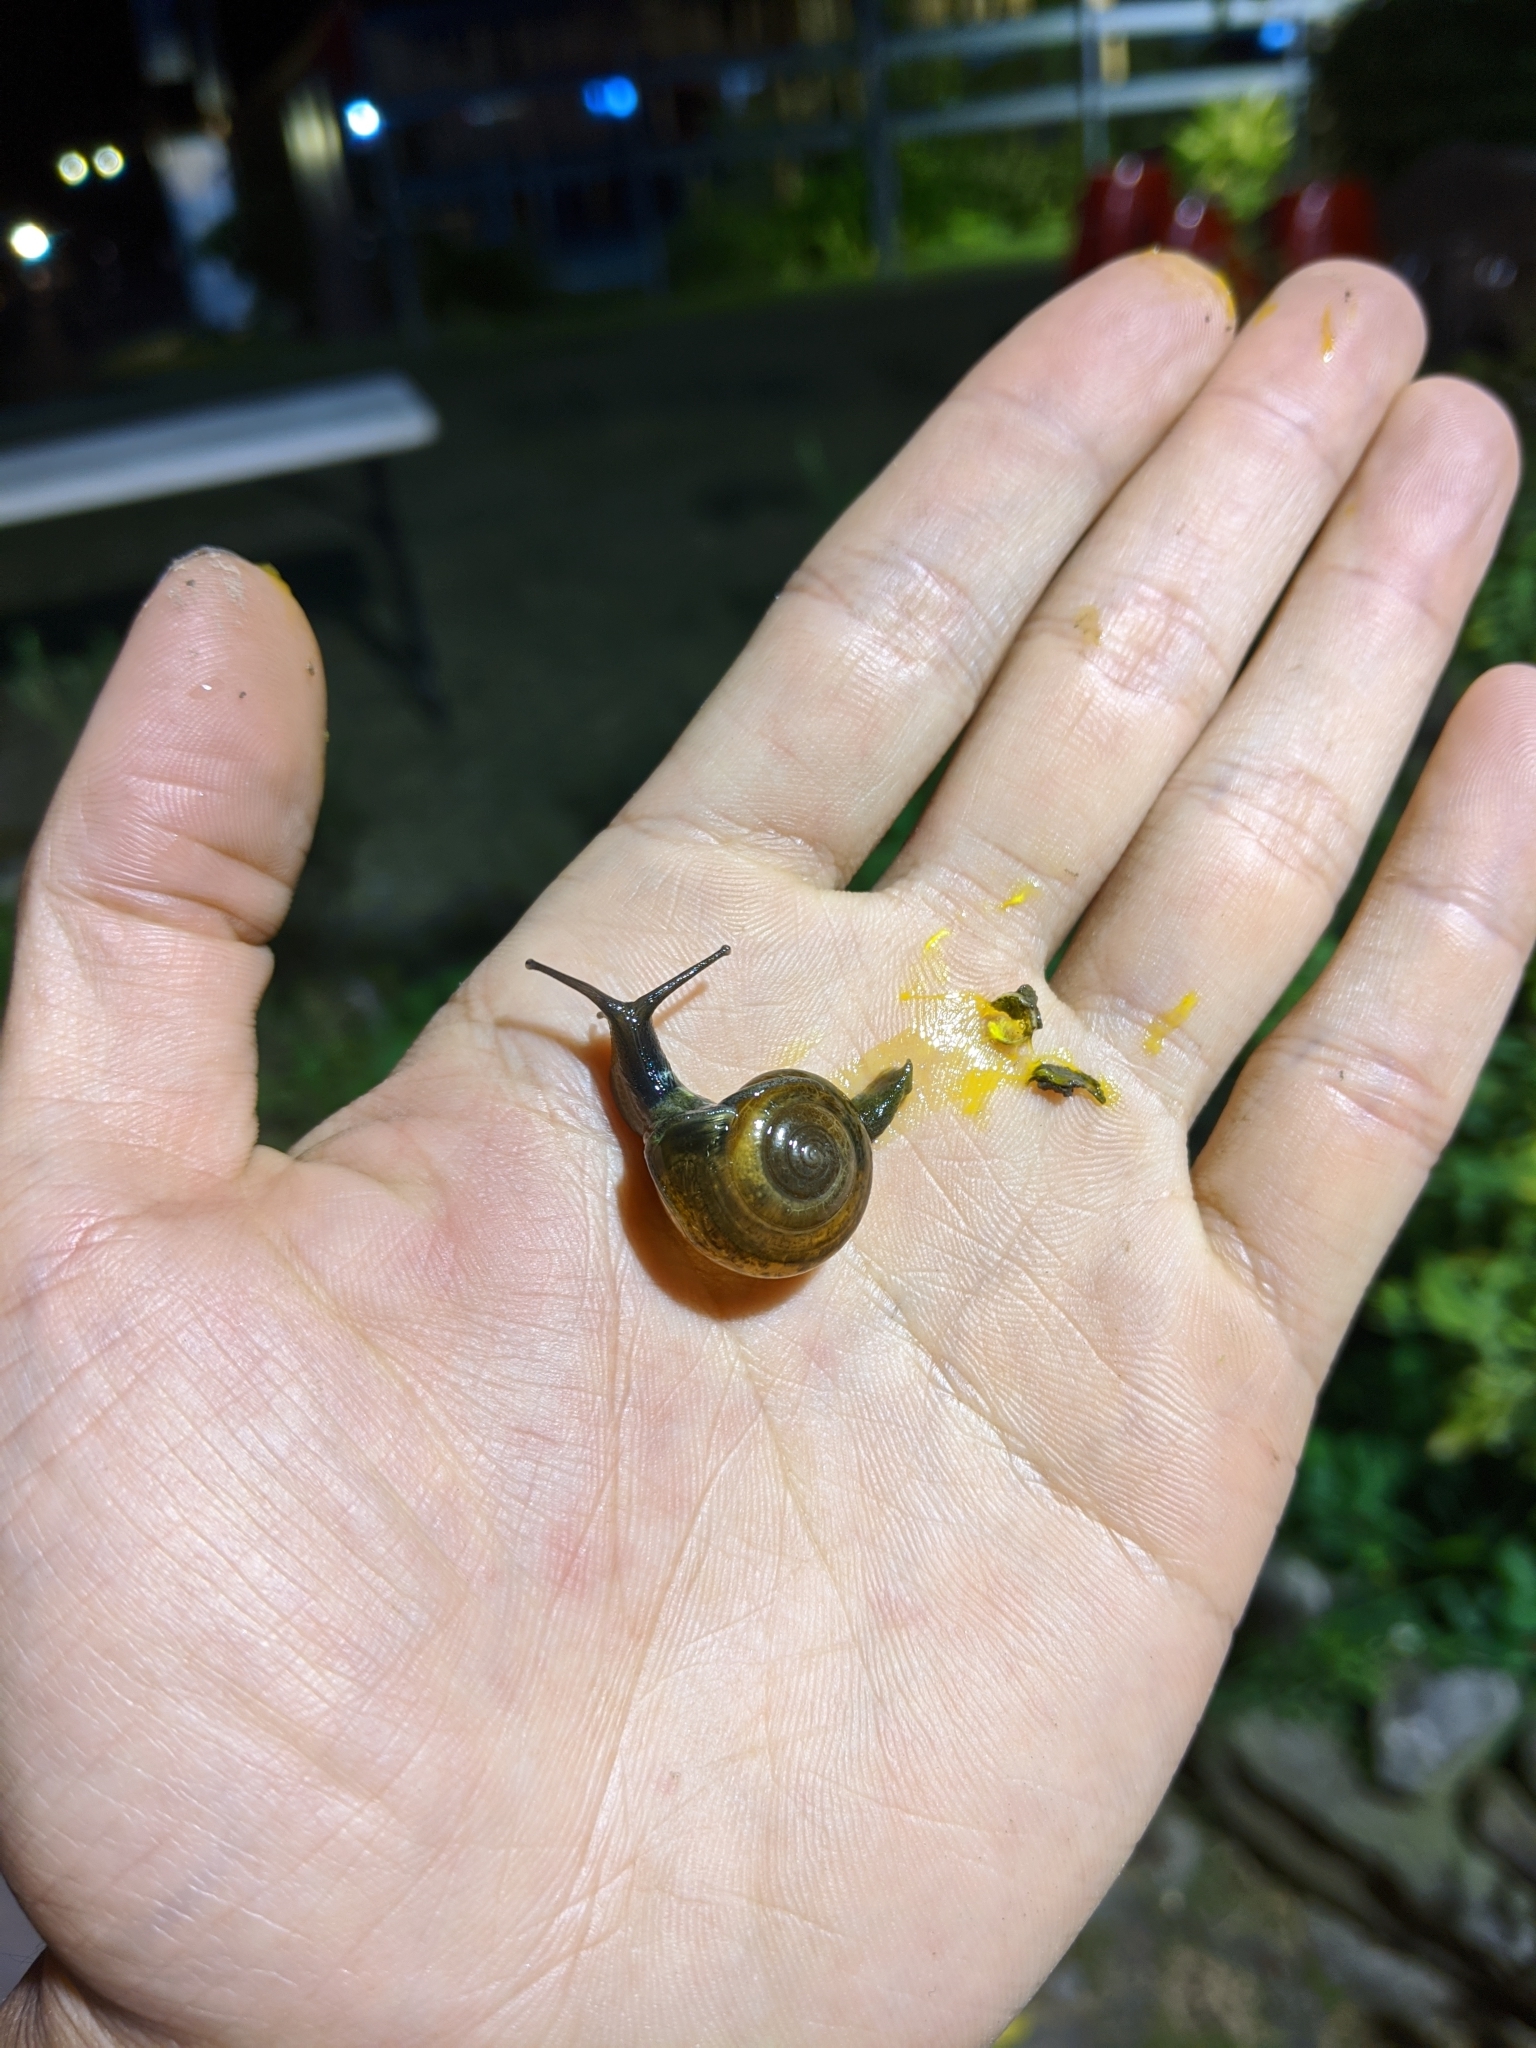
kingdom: Animalia
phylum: Mollusca
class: Gastropoda
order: Stylommatophora
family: Ariophantidae
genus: Macrochlamys
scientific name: Macrochlamys hippocastaneum
